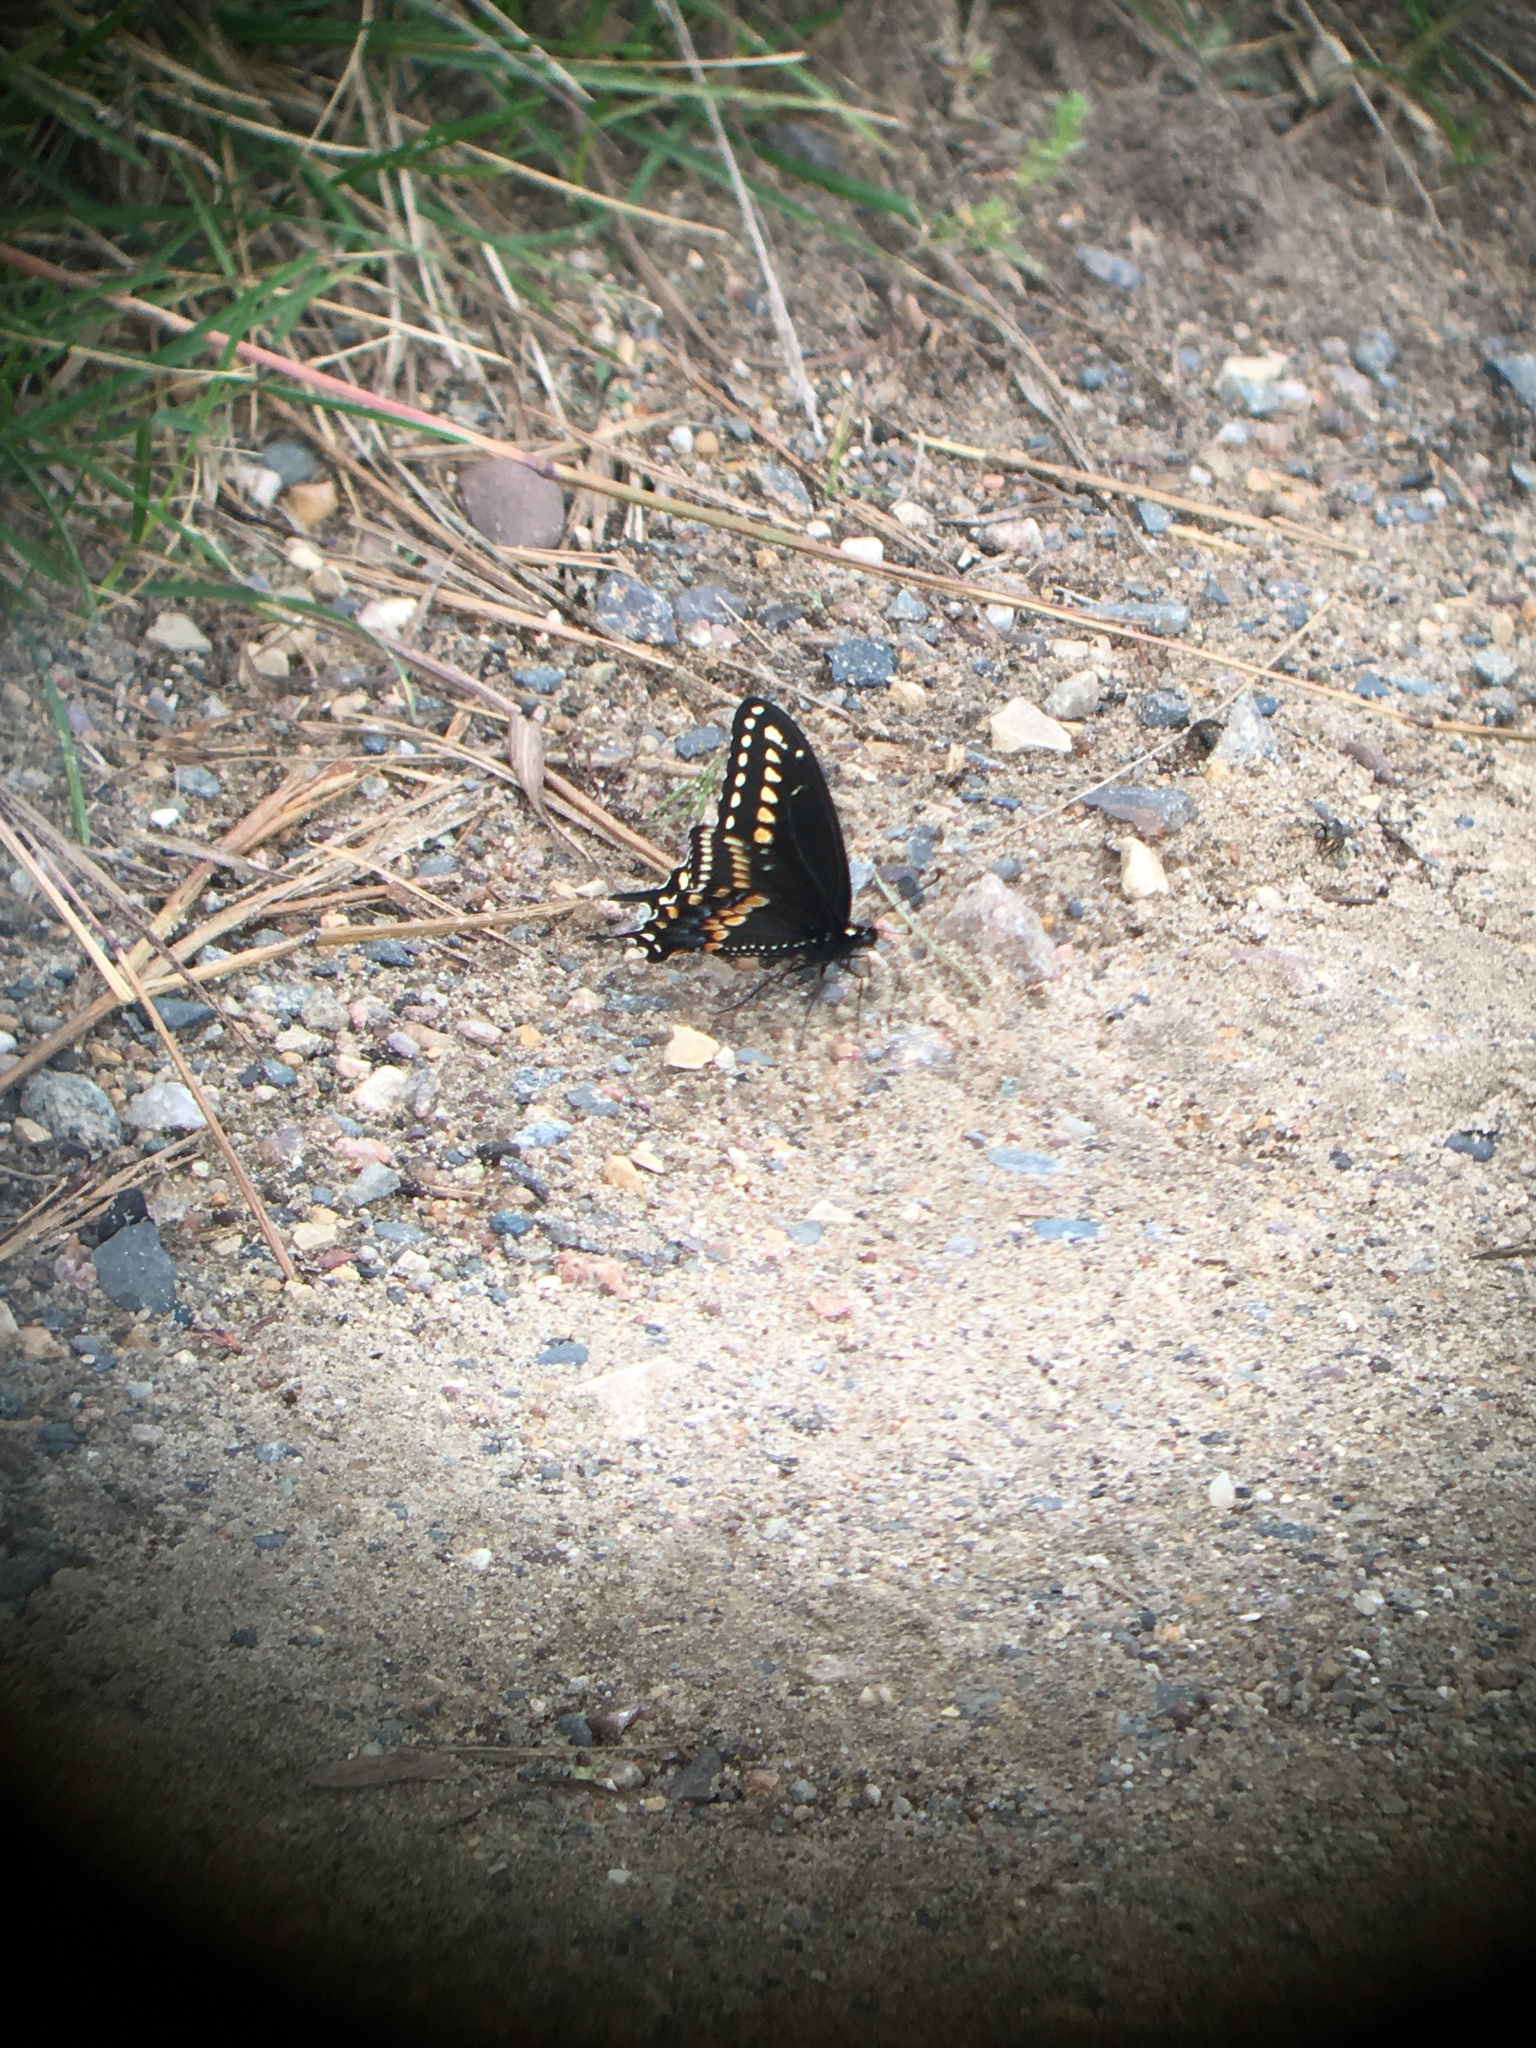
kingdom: Animalia
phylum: Arthropoda
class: Insecta
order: Lepidoptera
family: Papilionidae
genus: Papilio
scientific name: Papilio polyxenes
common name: Black swallowtail
